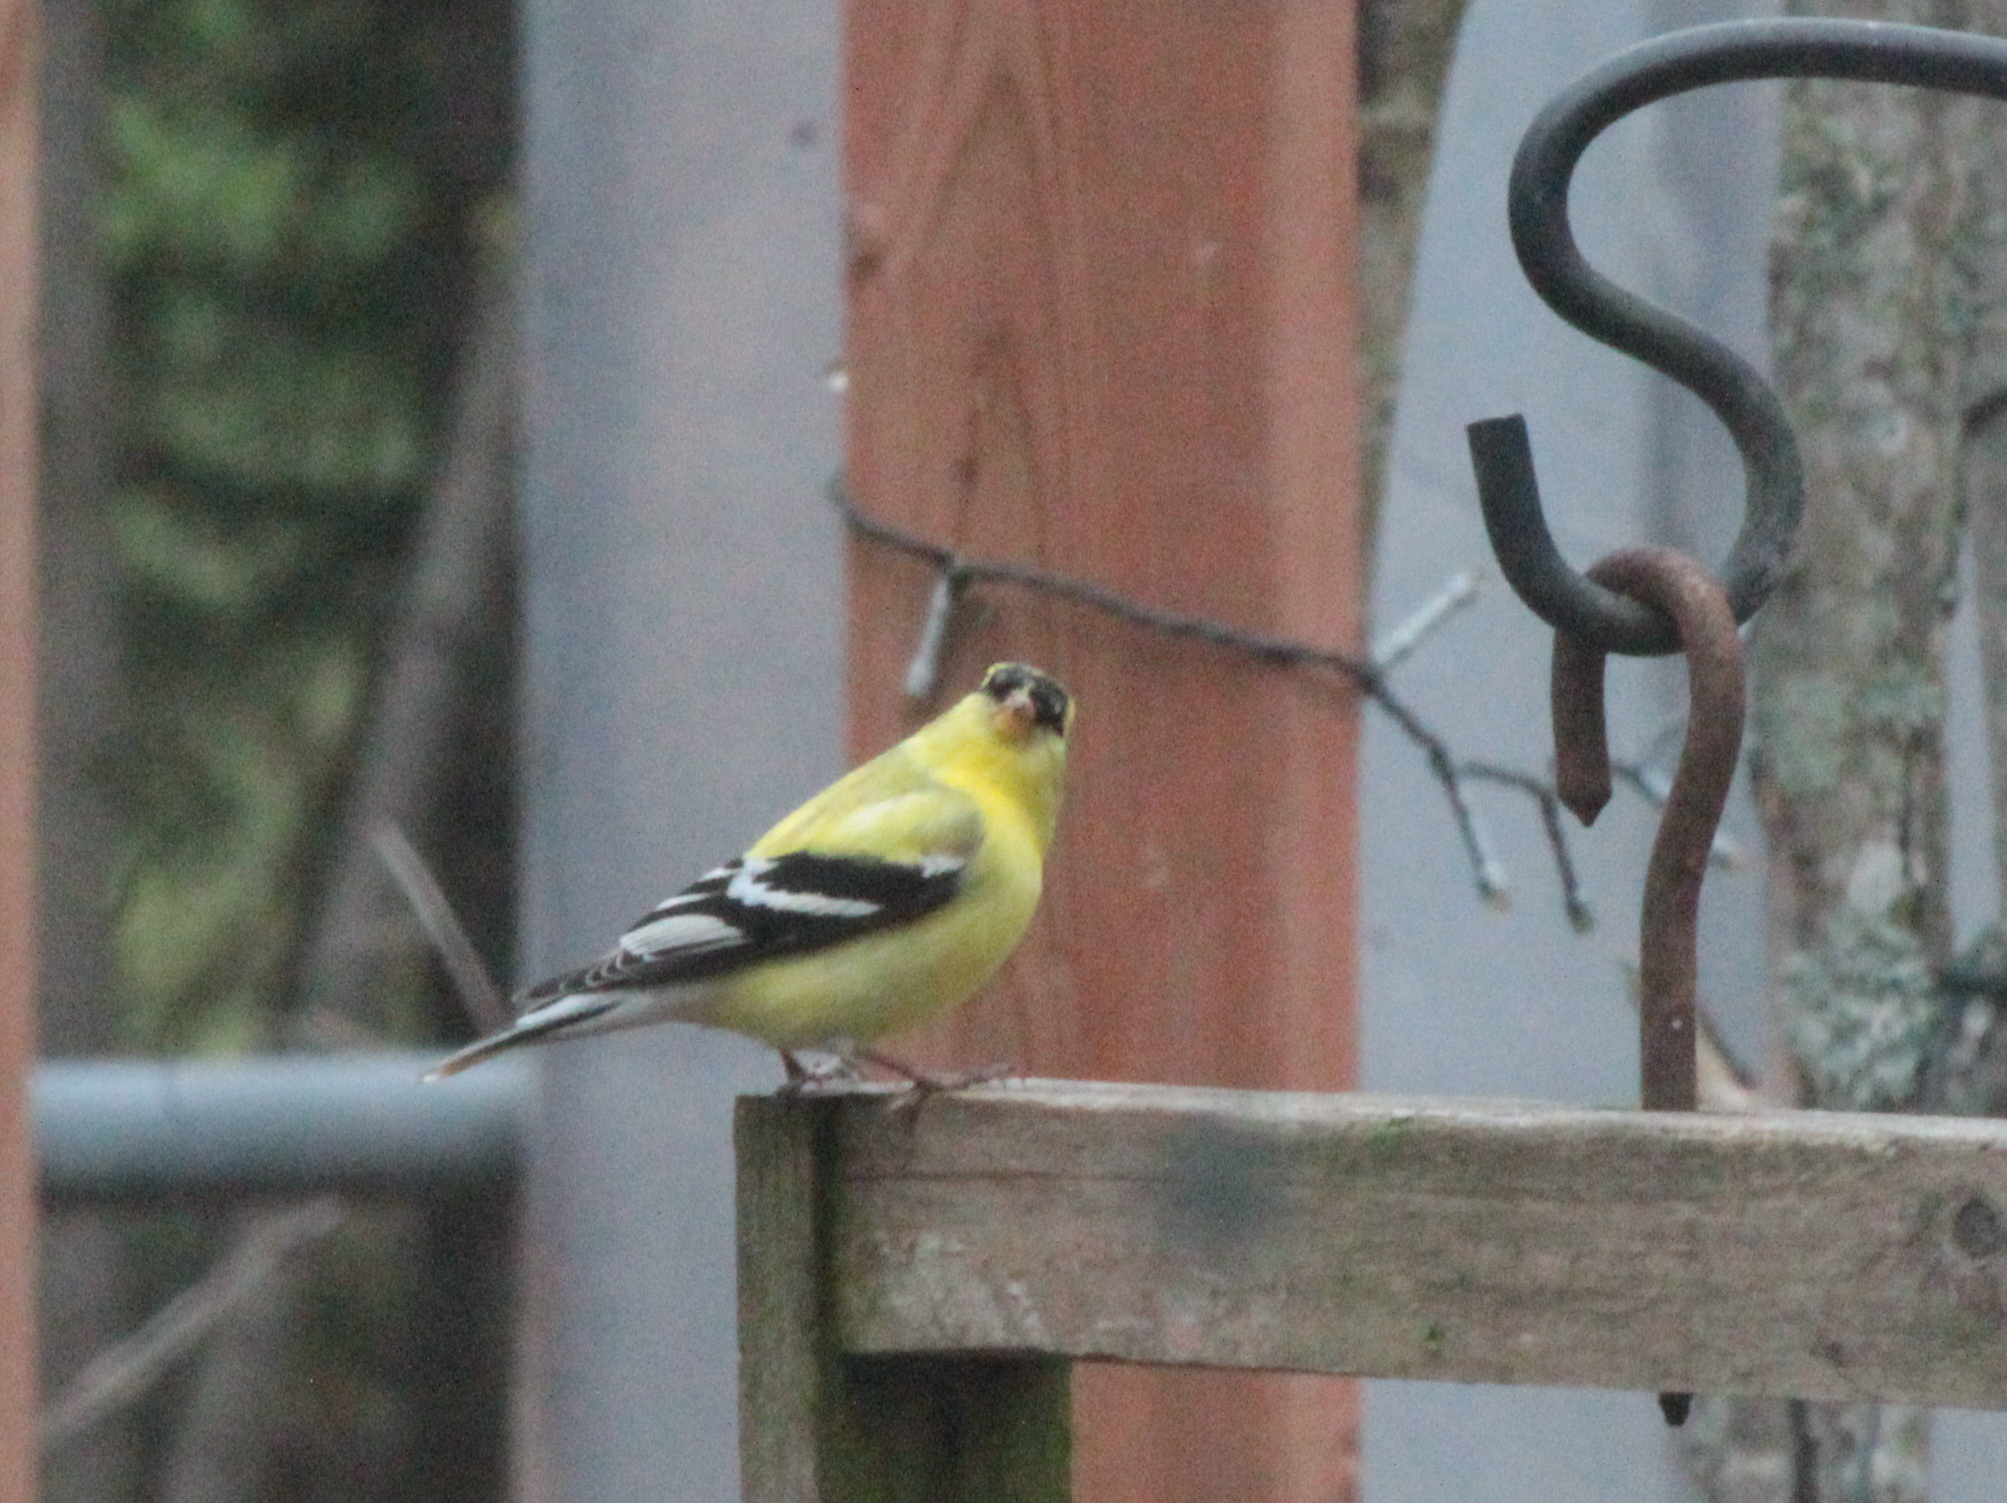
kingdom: Animalia
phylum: Chordata
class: Aves
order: Passeriformes
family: Fringillidae
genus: Spinus
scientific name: Spinus tristis
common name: American goldfinch
